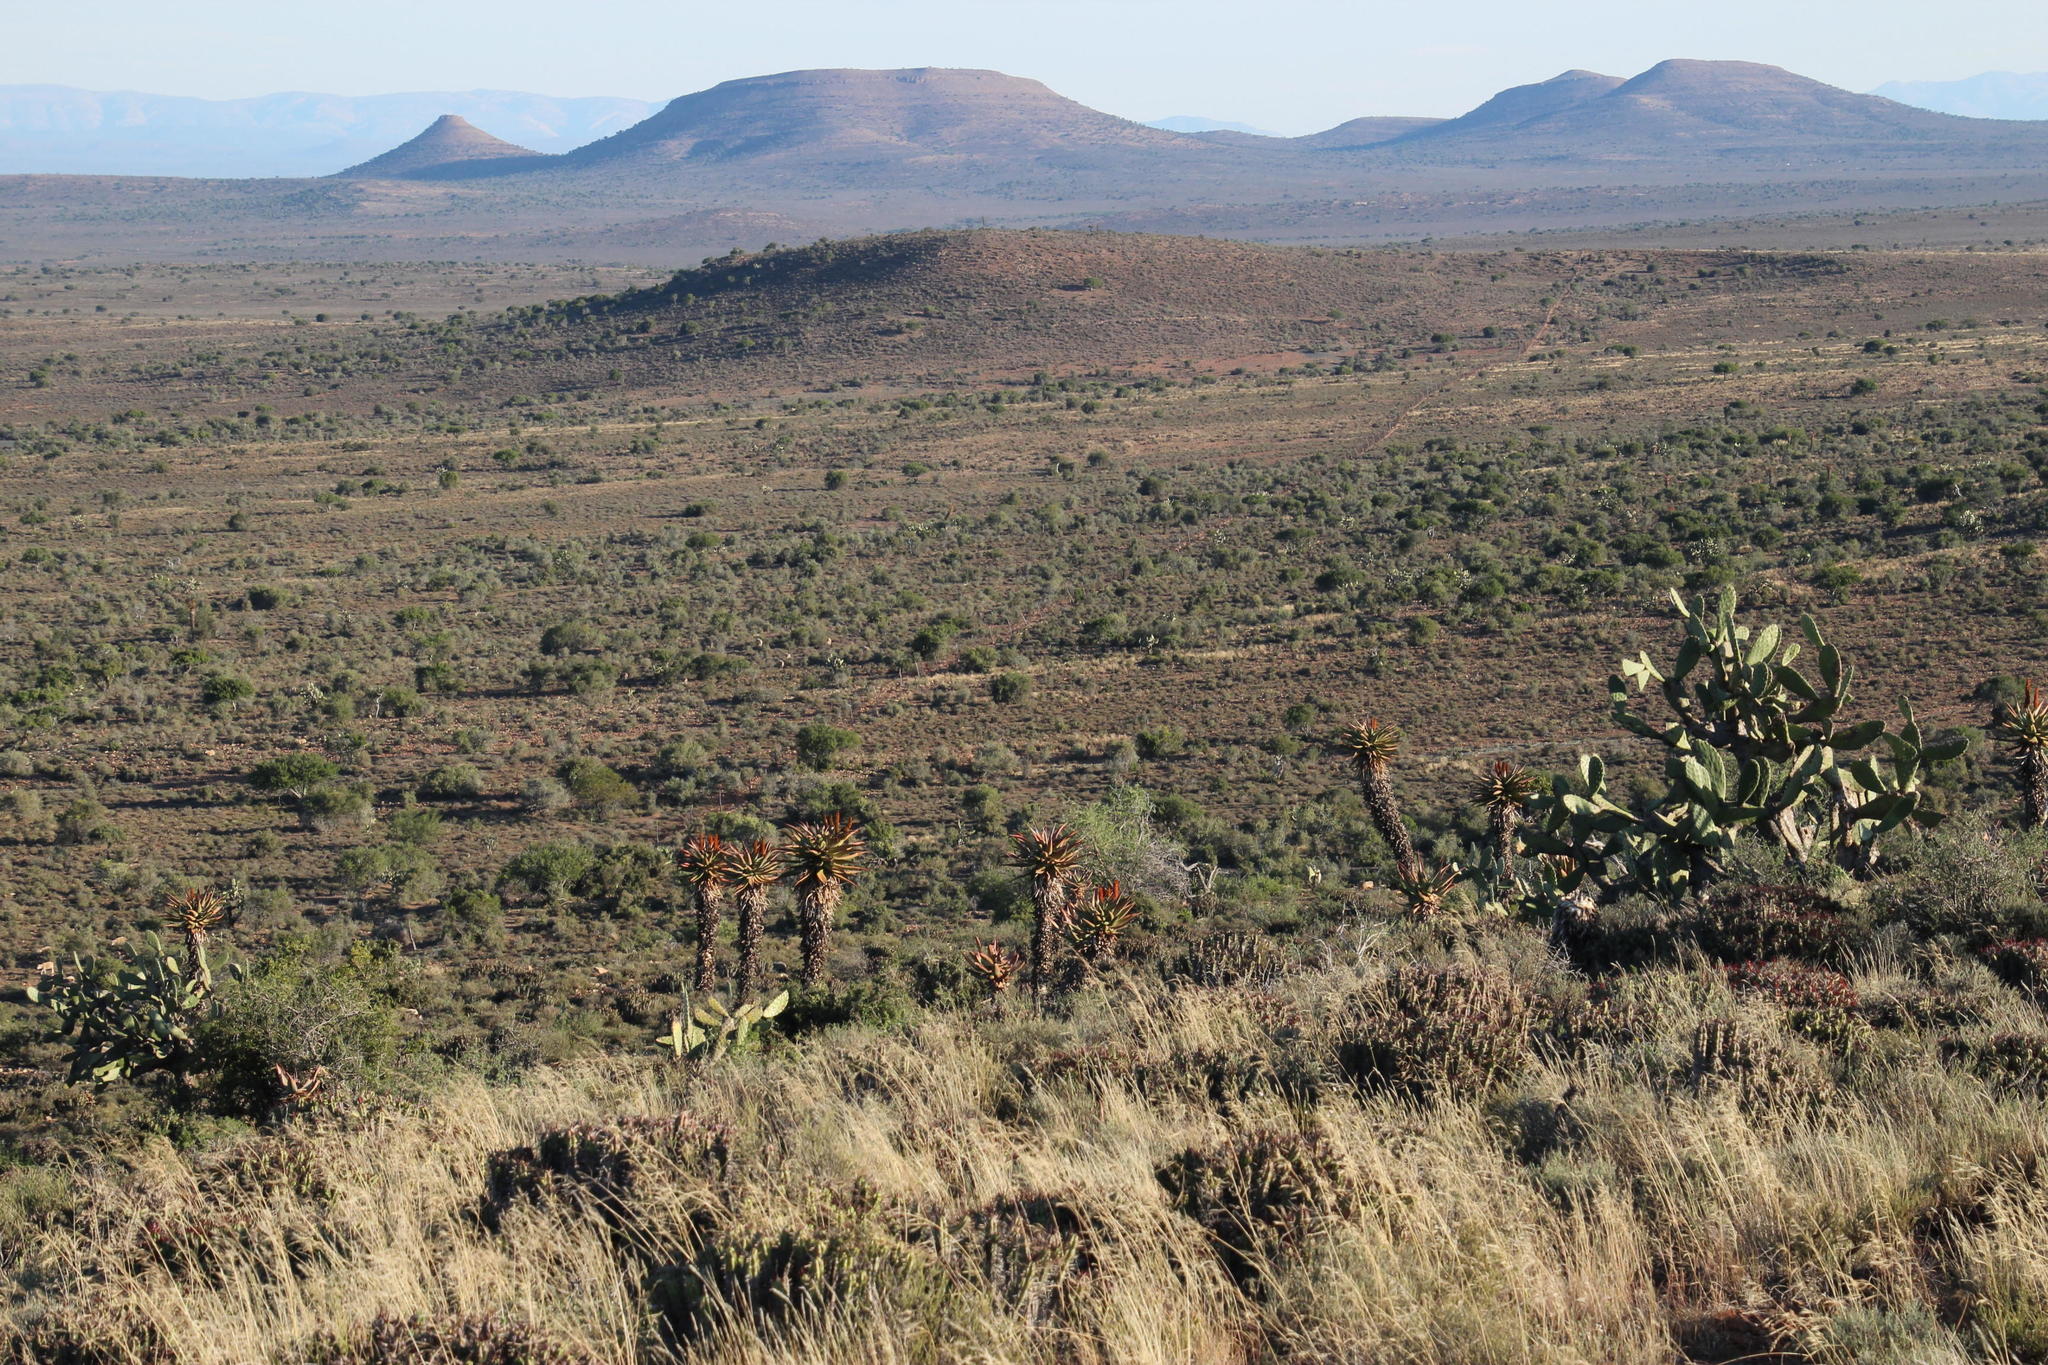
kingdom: Plantae
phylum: Tracheophyta
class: Magnoliopsida
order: Caryophyllales
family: Cactaceae
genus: Opuntia
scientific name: Opuntia ficus-indica
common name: Barbary fig
